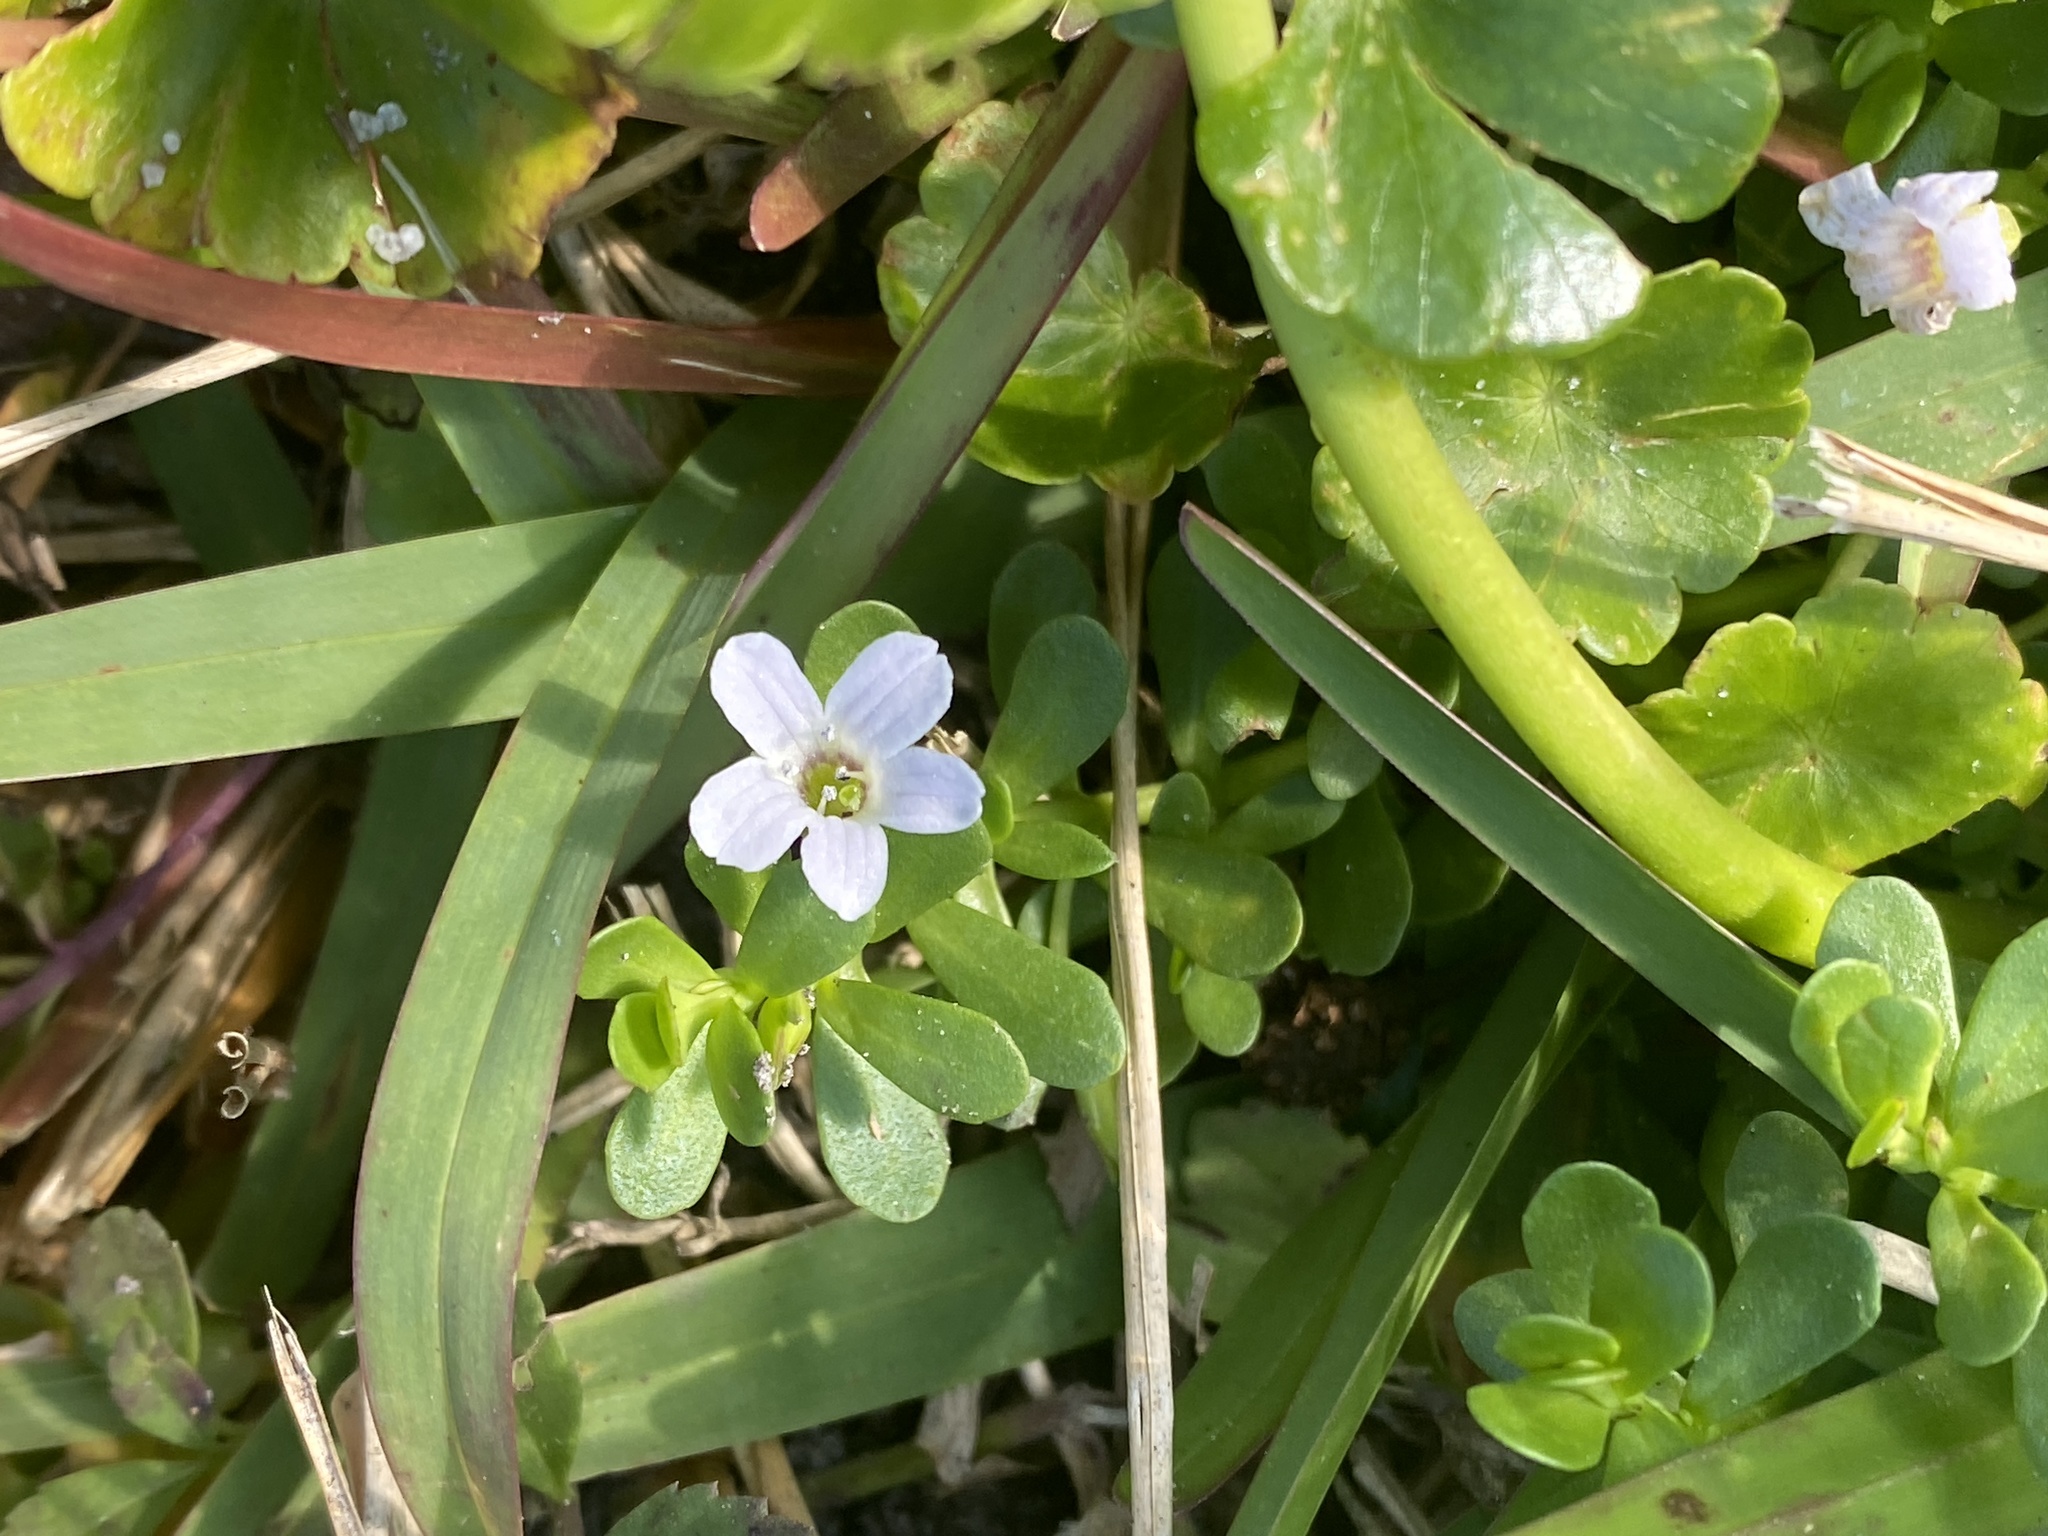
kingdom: Plantae
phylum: Tracheophyta
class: Magnoliopsida
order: Lamiales
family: Plantaginaceae
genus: Bacopa
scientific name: Bacopa monnieri
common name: Indian-pennywort
